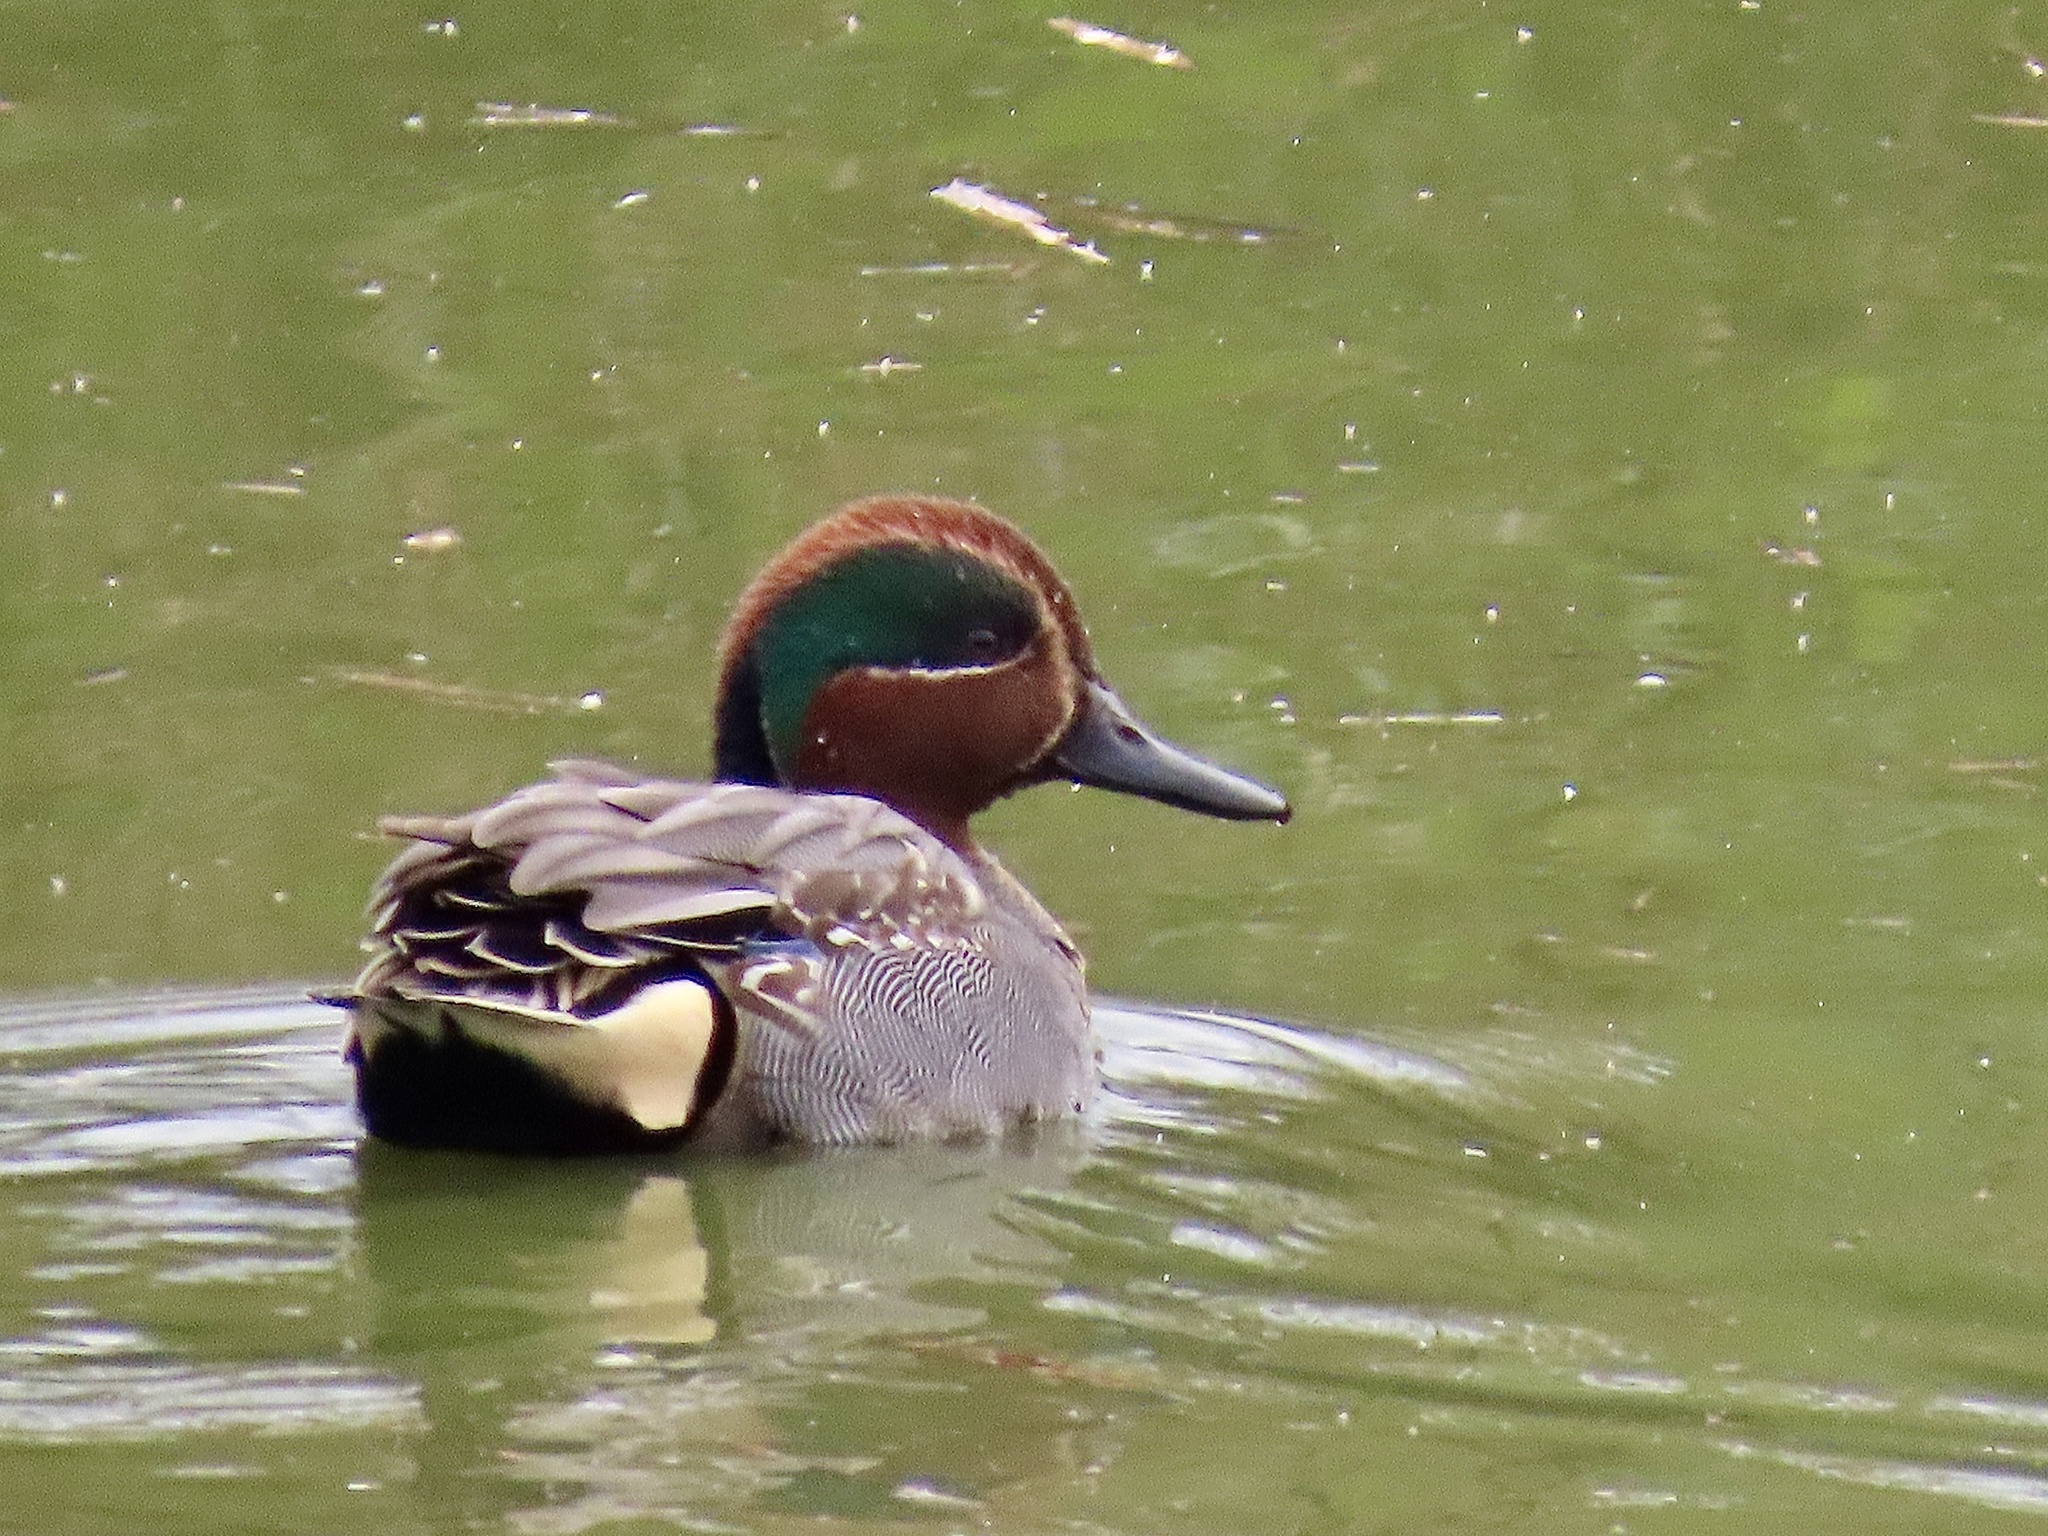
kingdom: Animalia
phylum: Chordata
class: Aves
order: Anseriformes
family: Anatidae
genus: Anas
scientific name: Anas crecca
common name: Eurasian teal
